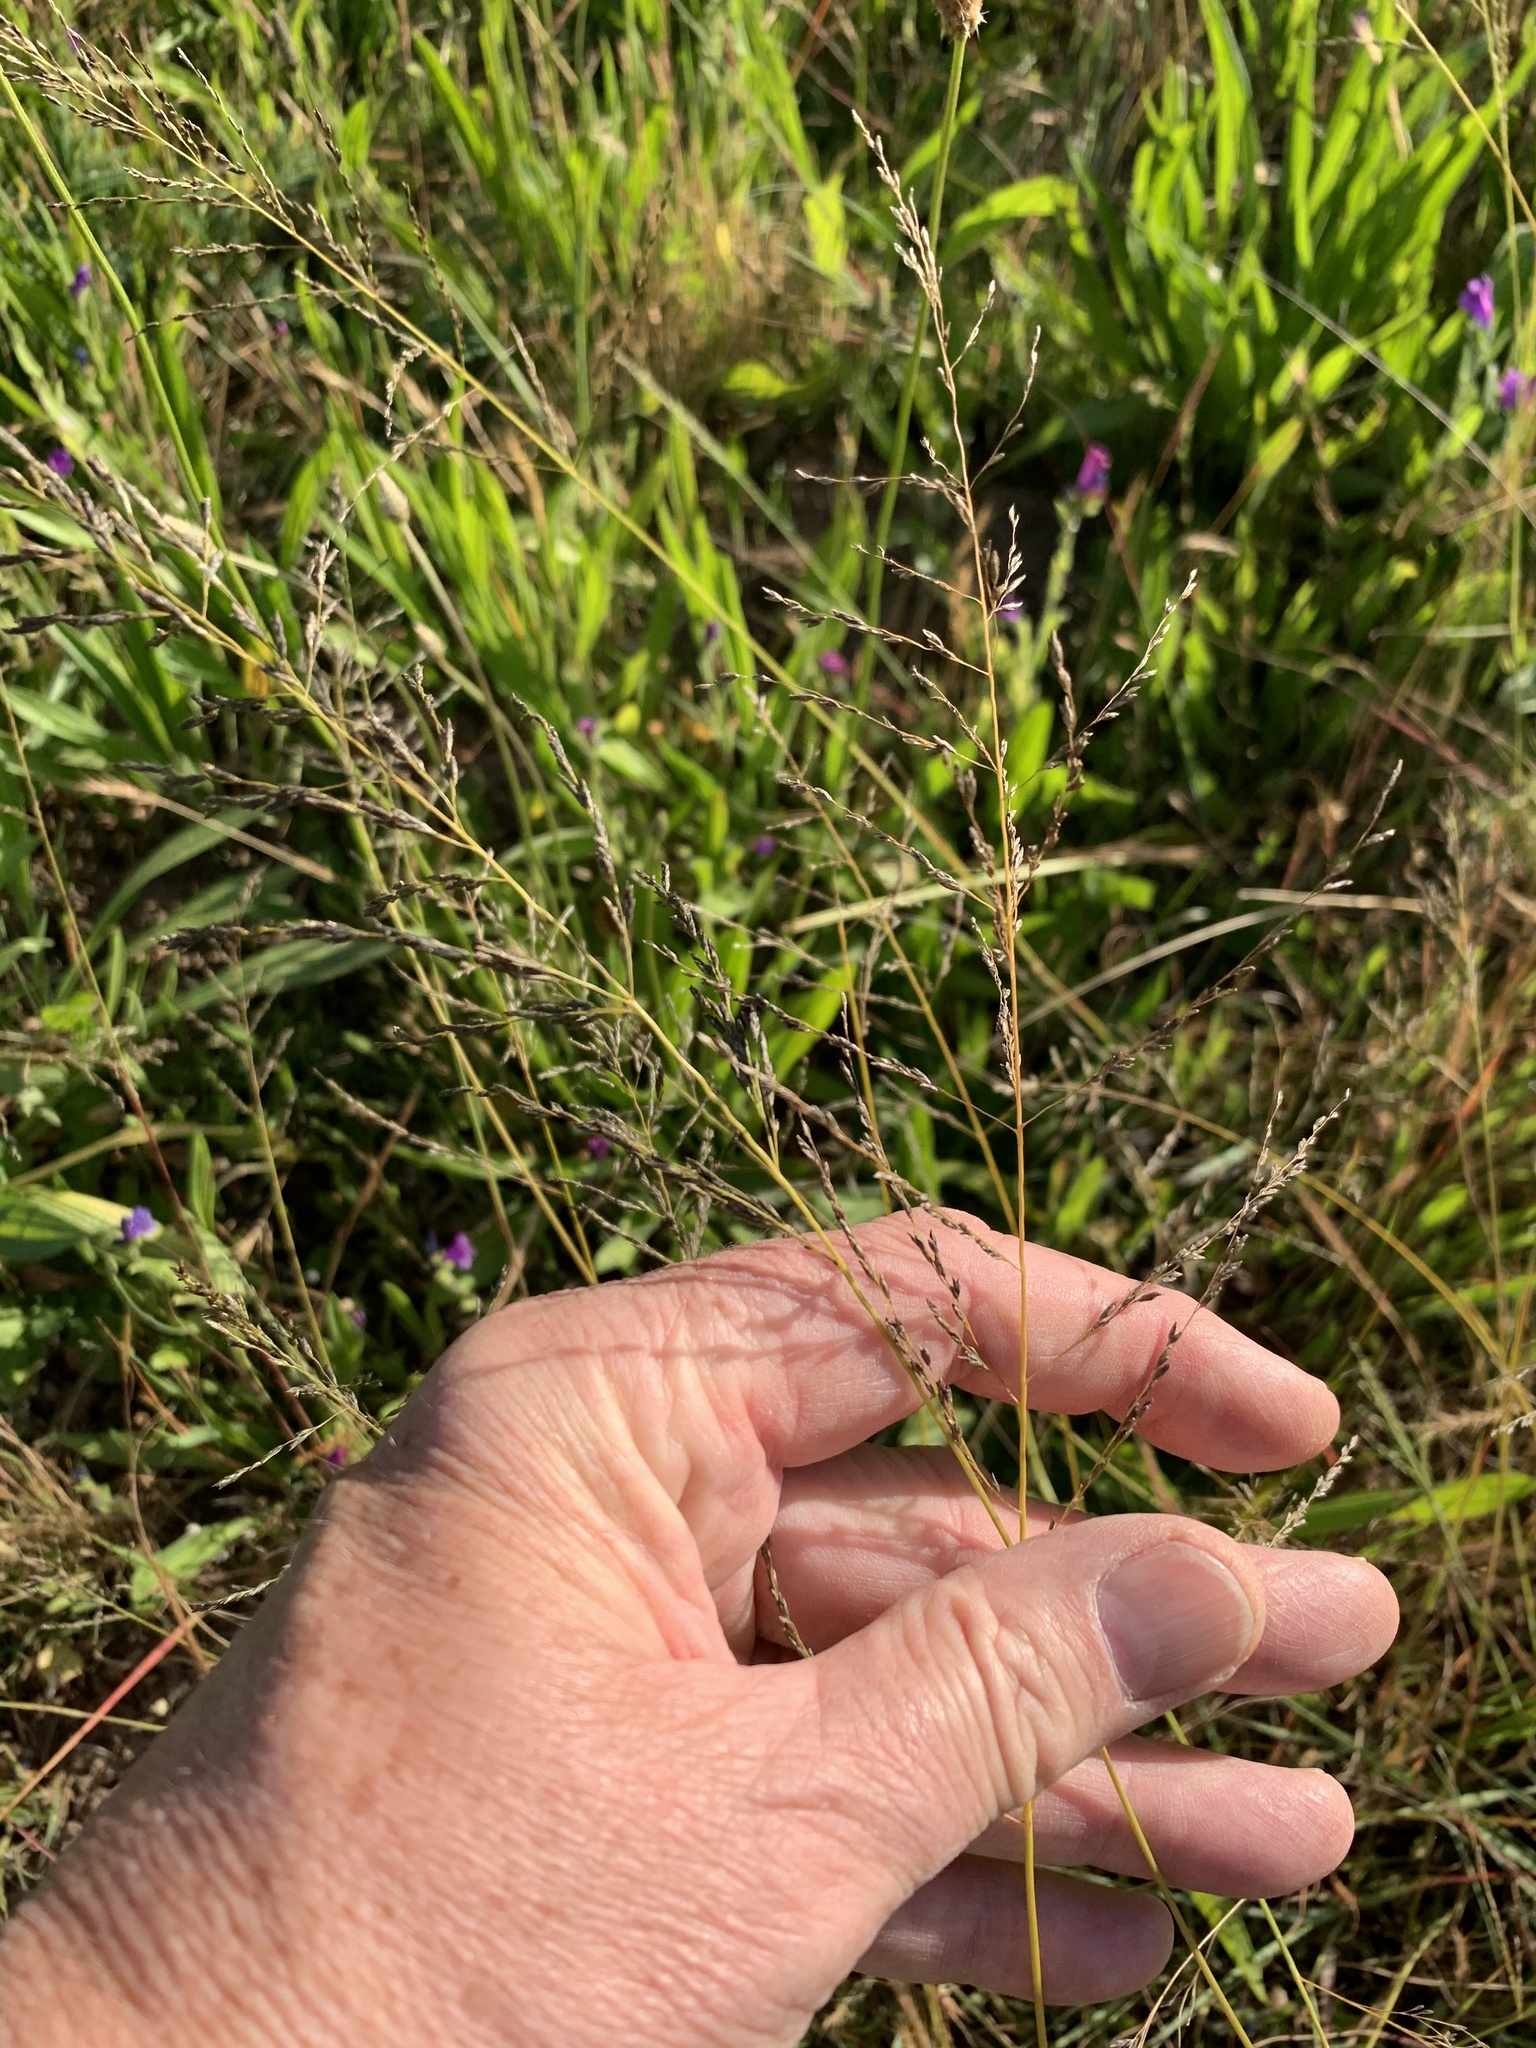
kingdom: Plantae
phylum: Tracheophyta
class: Liliopsida
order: Poales
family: Poaceae
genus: Eragrostis
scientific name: Eragrostis curvula
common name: African love-grass
